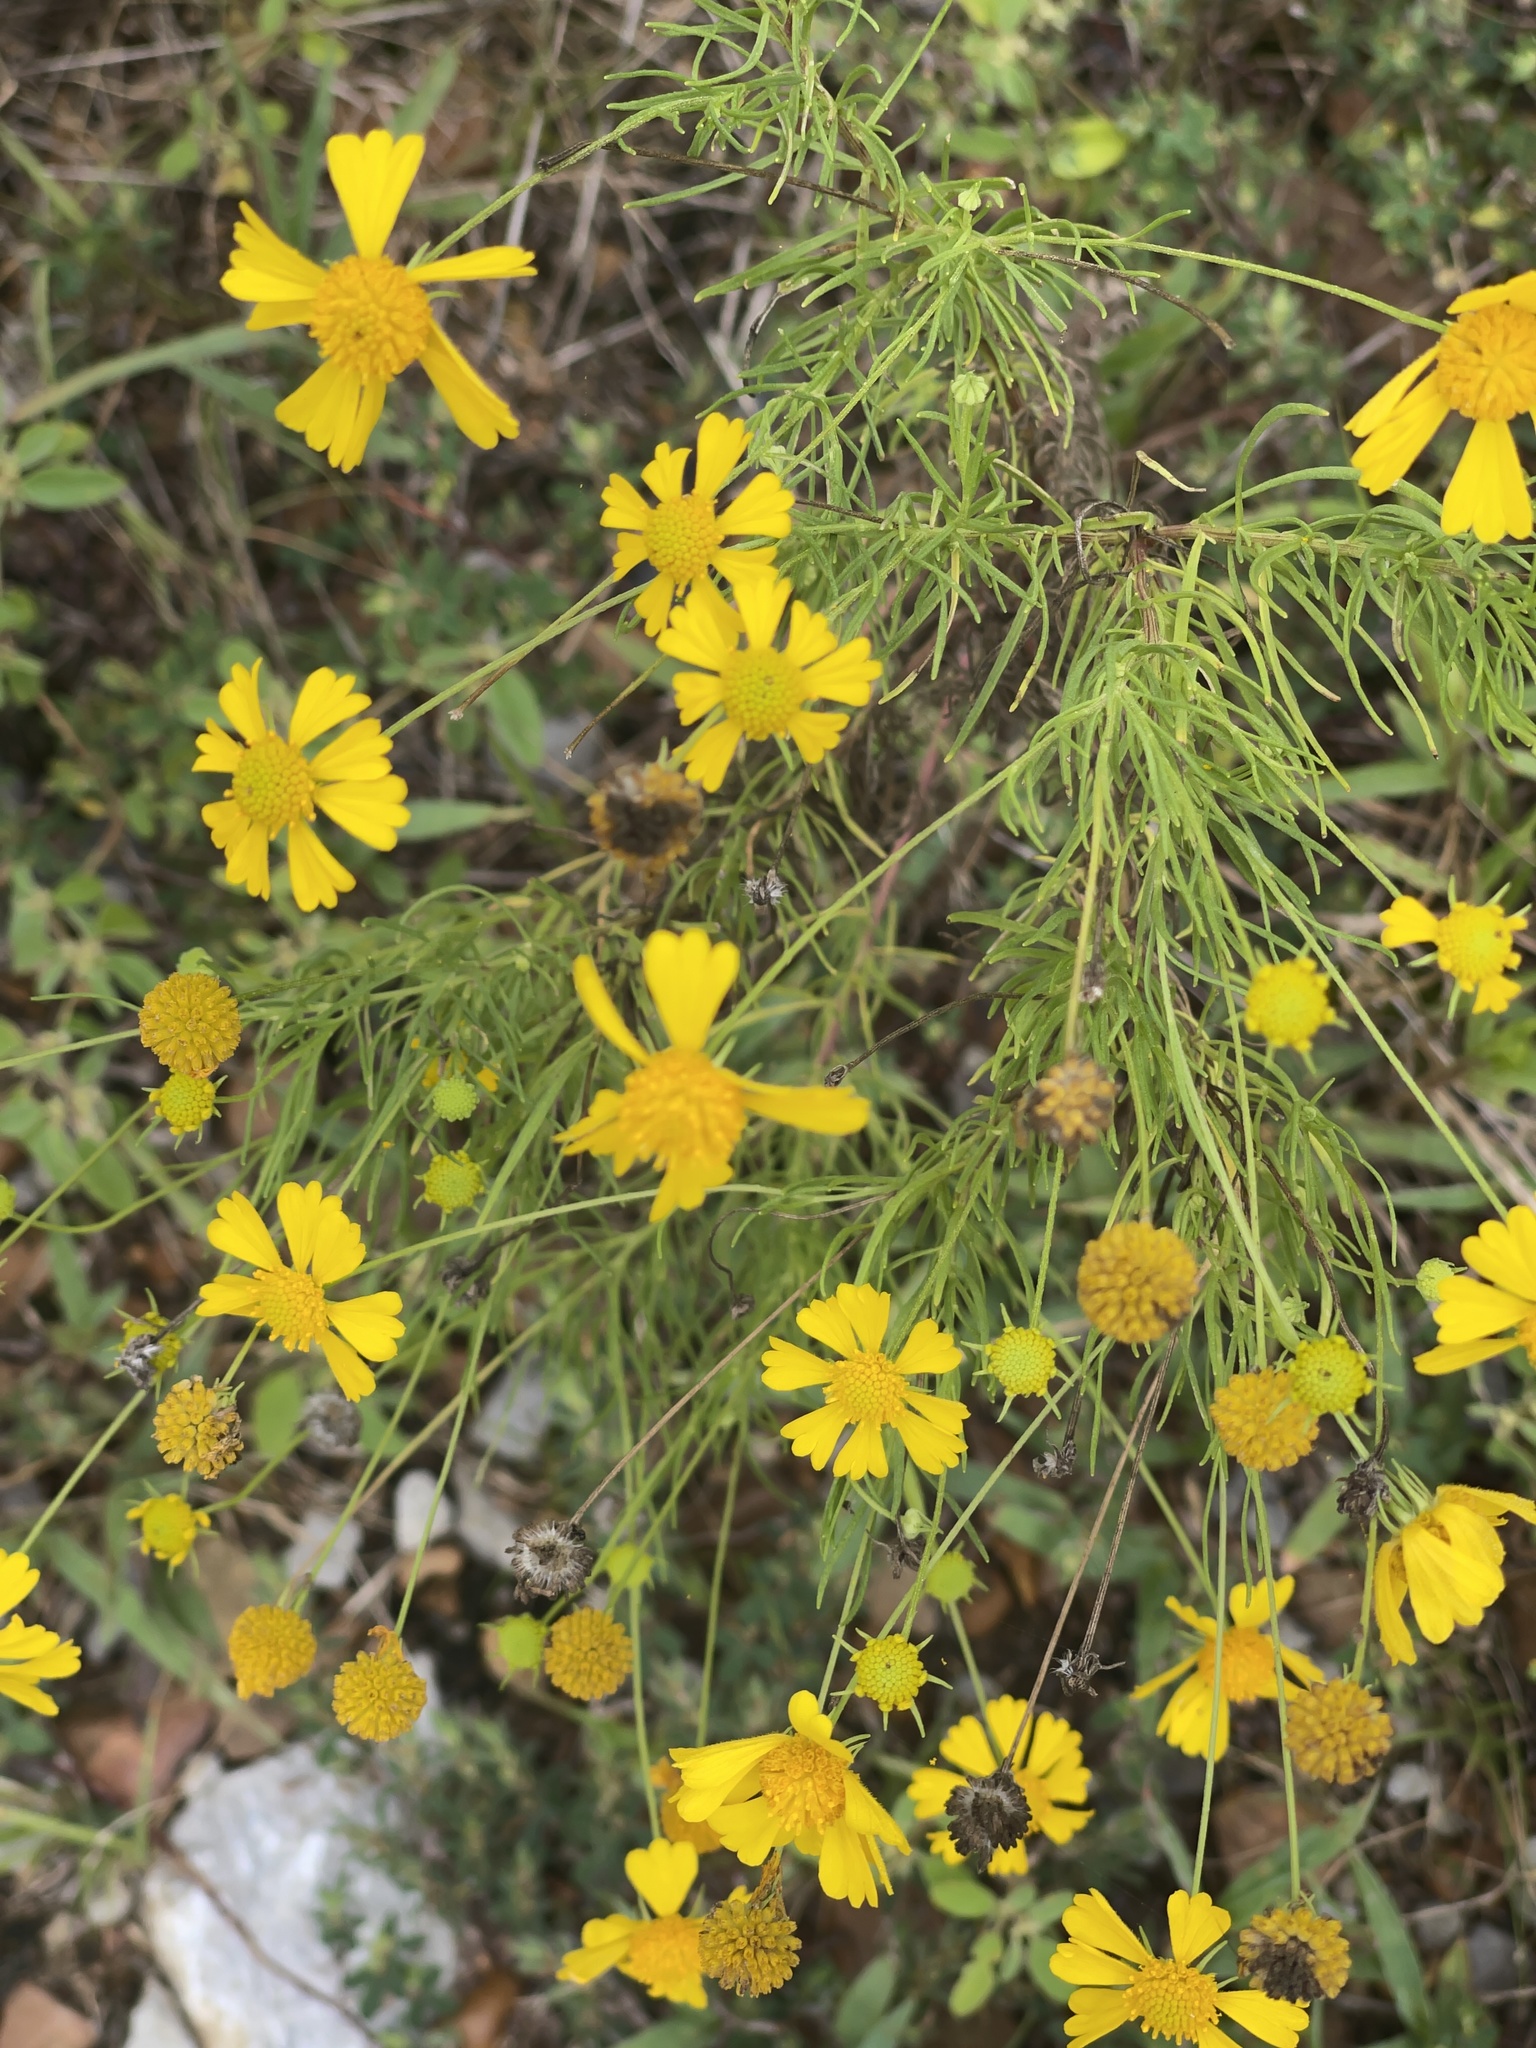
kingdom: Plantae
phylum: Tracheophyta
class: Magnoliopsida
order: Asterales
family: Asteraceae
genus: Helenium
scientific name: Helenium amarum
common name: Bitter sneezeweed
